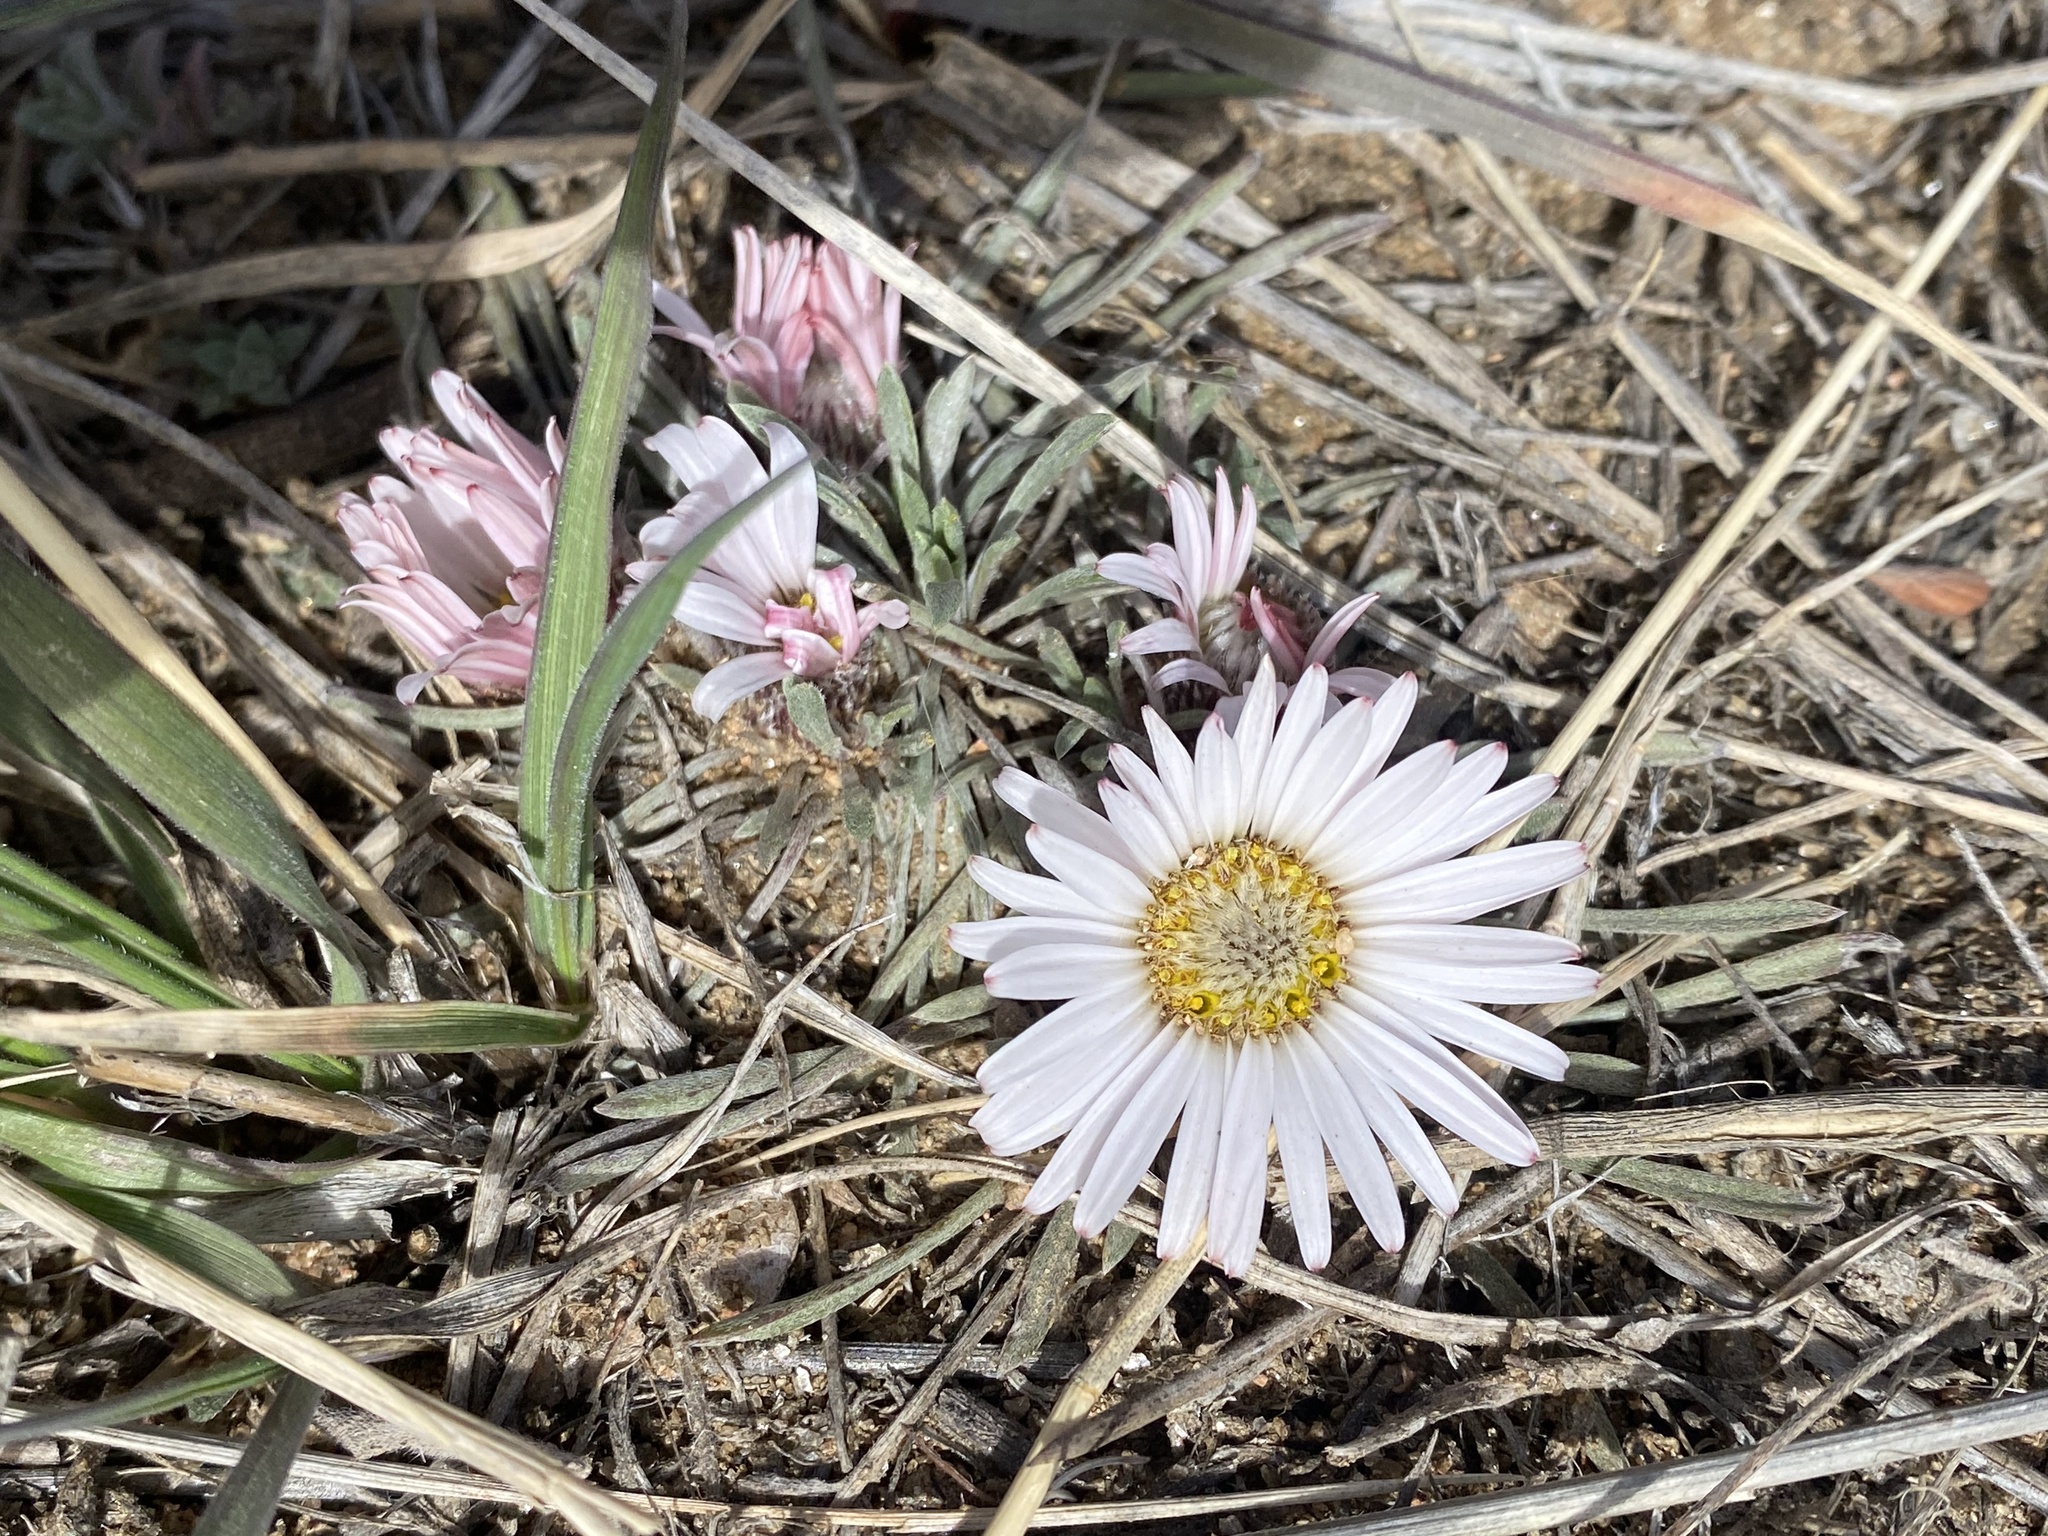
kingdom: Plantae
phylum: Tracheophyta
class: Magnoliopsida
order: Asterales
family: Asteraceae
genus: Townsendia
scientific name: Townsendia hookeri
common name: Hooker's townsend daisy
